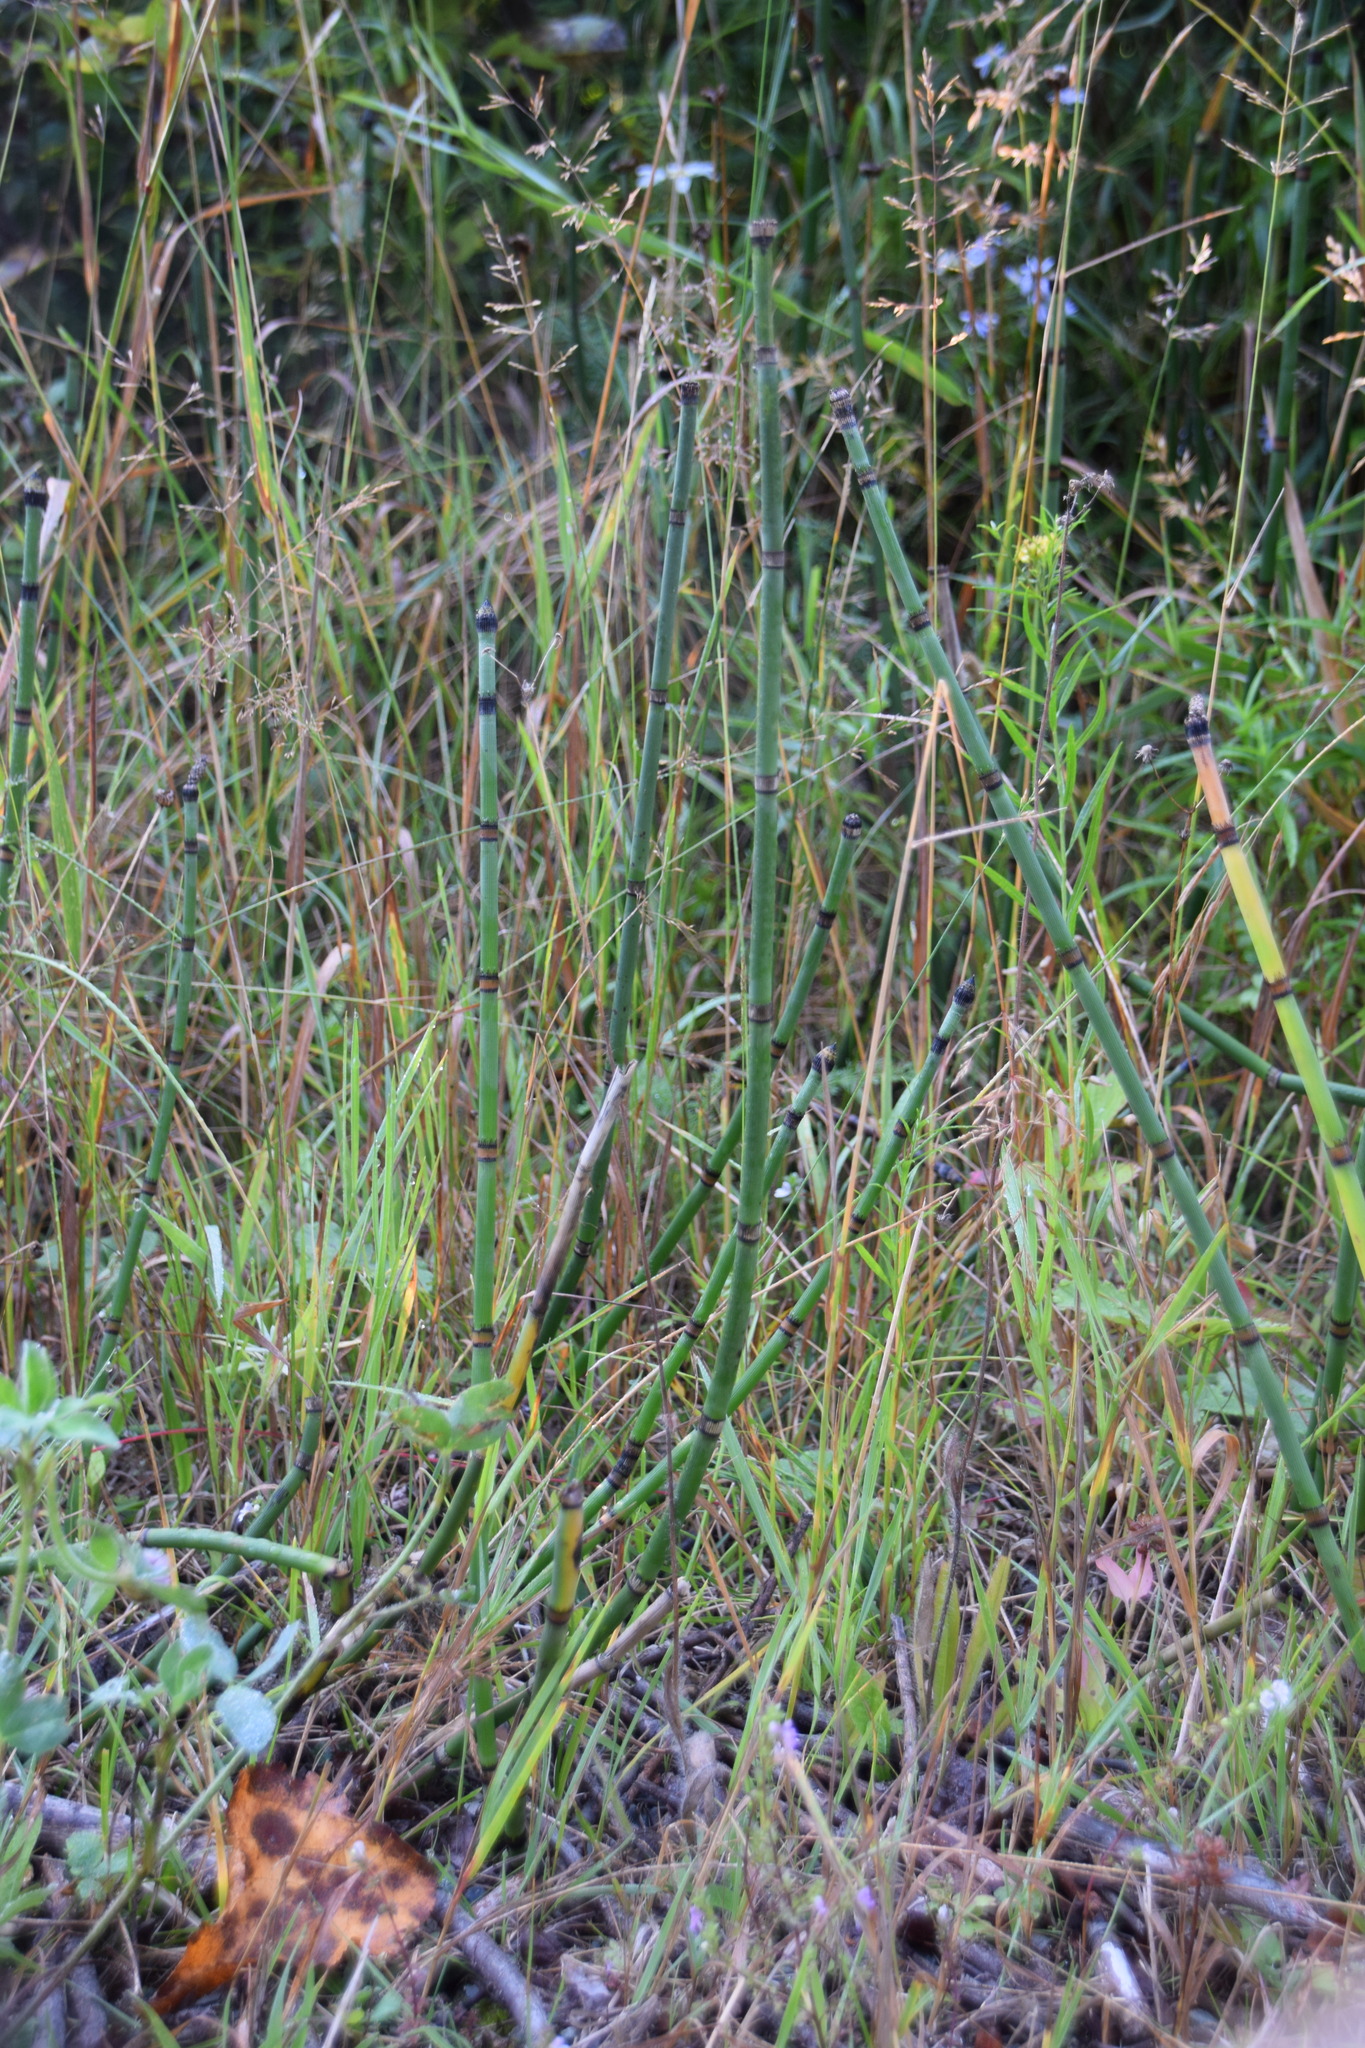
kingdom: Plantae
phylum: Tracheophyta
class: Polypodiopsida
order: Equisetales
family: Equisetaceae
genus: Equisetum
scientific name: Equisetum praealtum
